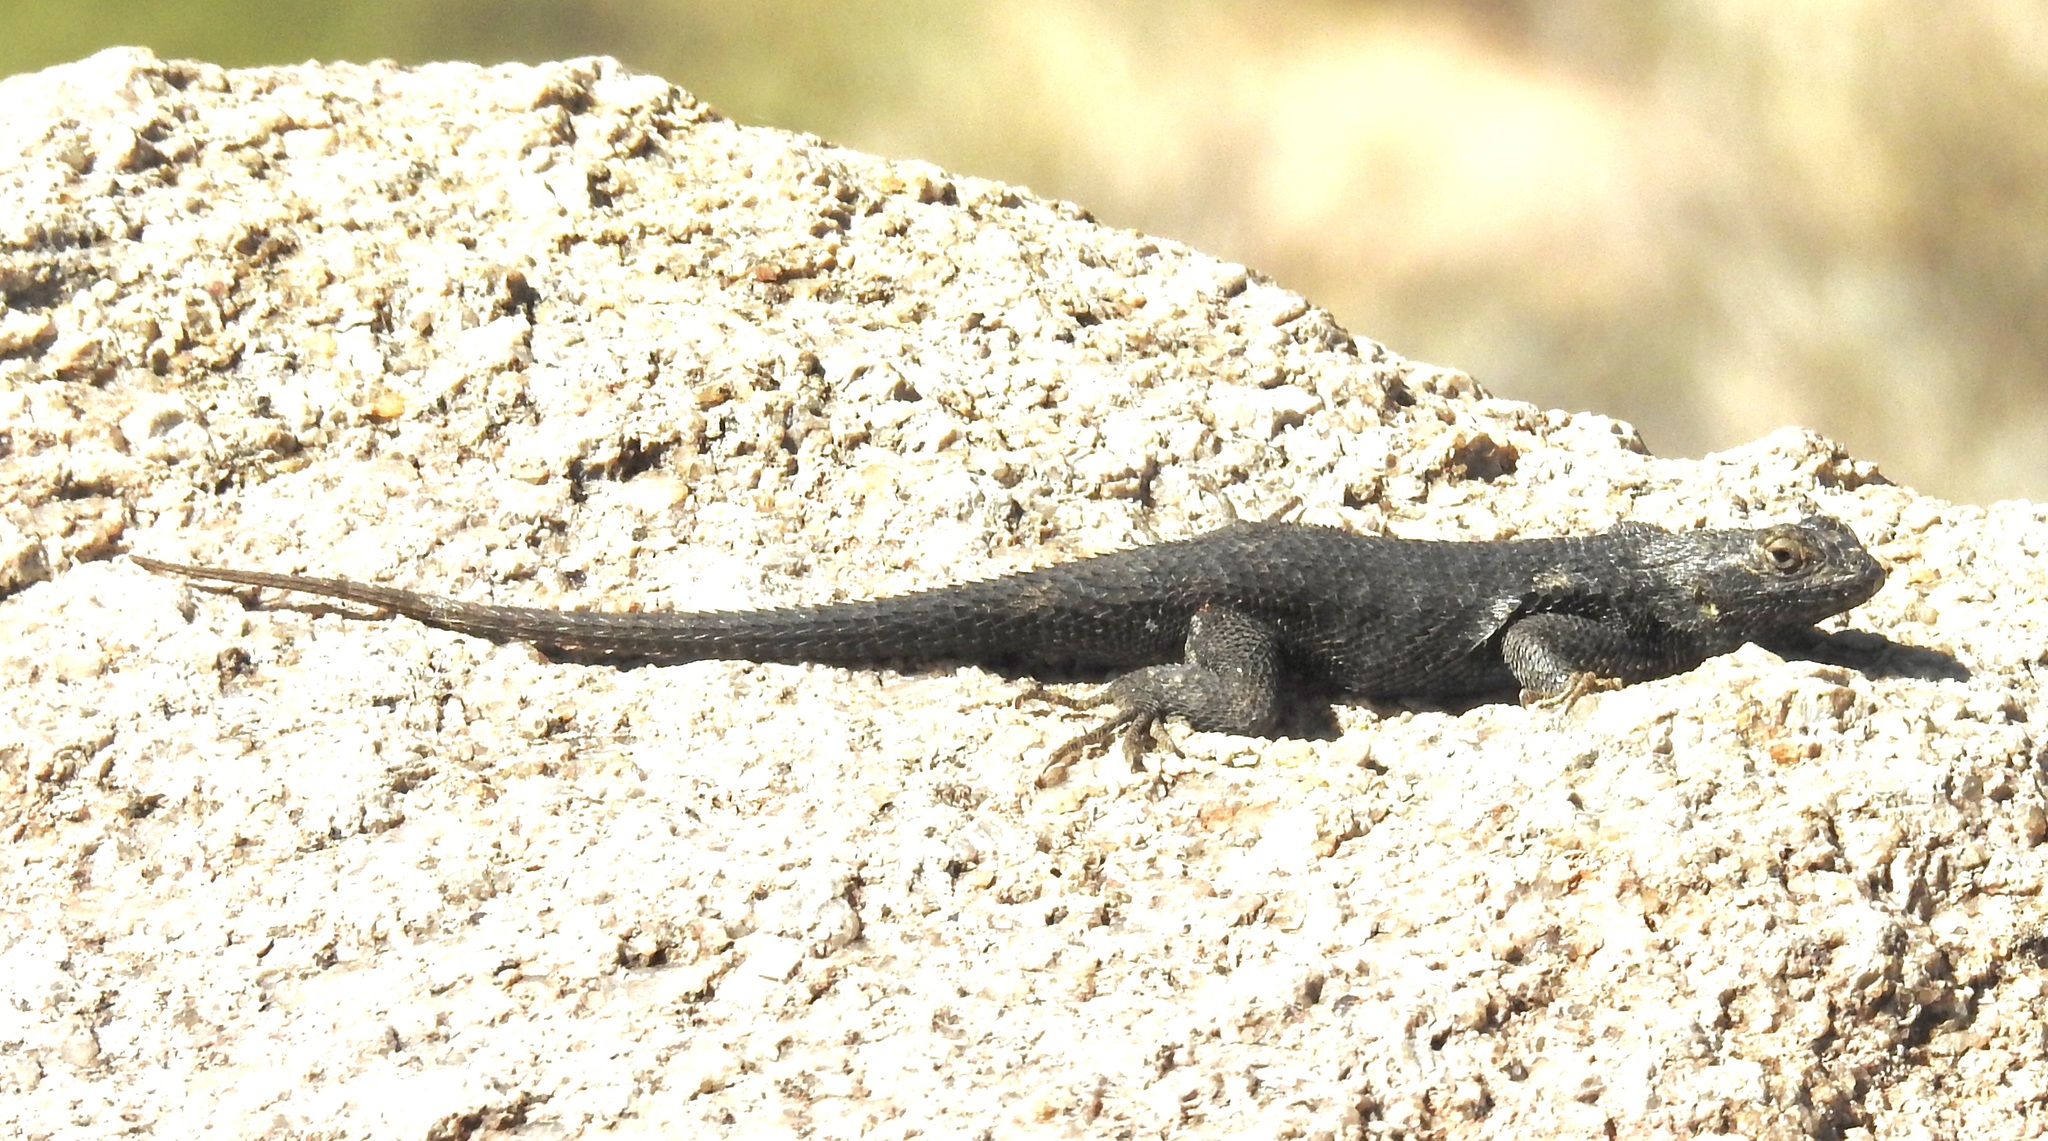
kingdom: Animalia
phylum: Chordata
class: Squamata
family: Phrynosomatidae
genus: Sceloporus
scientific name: Sceloporus occidentalis
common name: Western fence lizard
